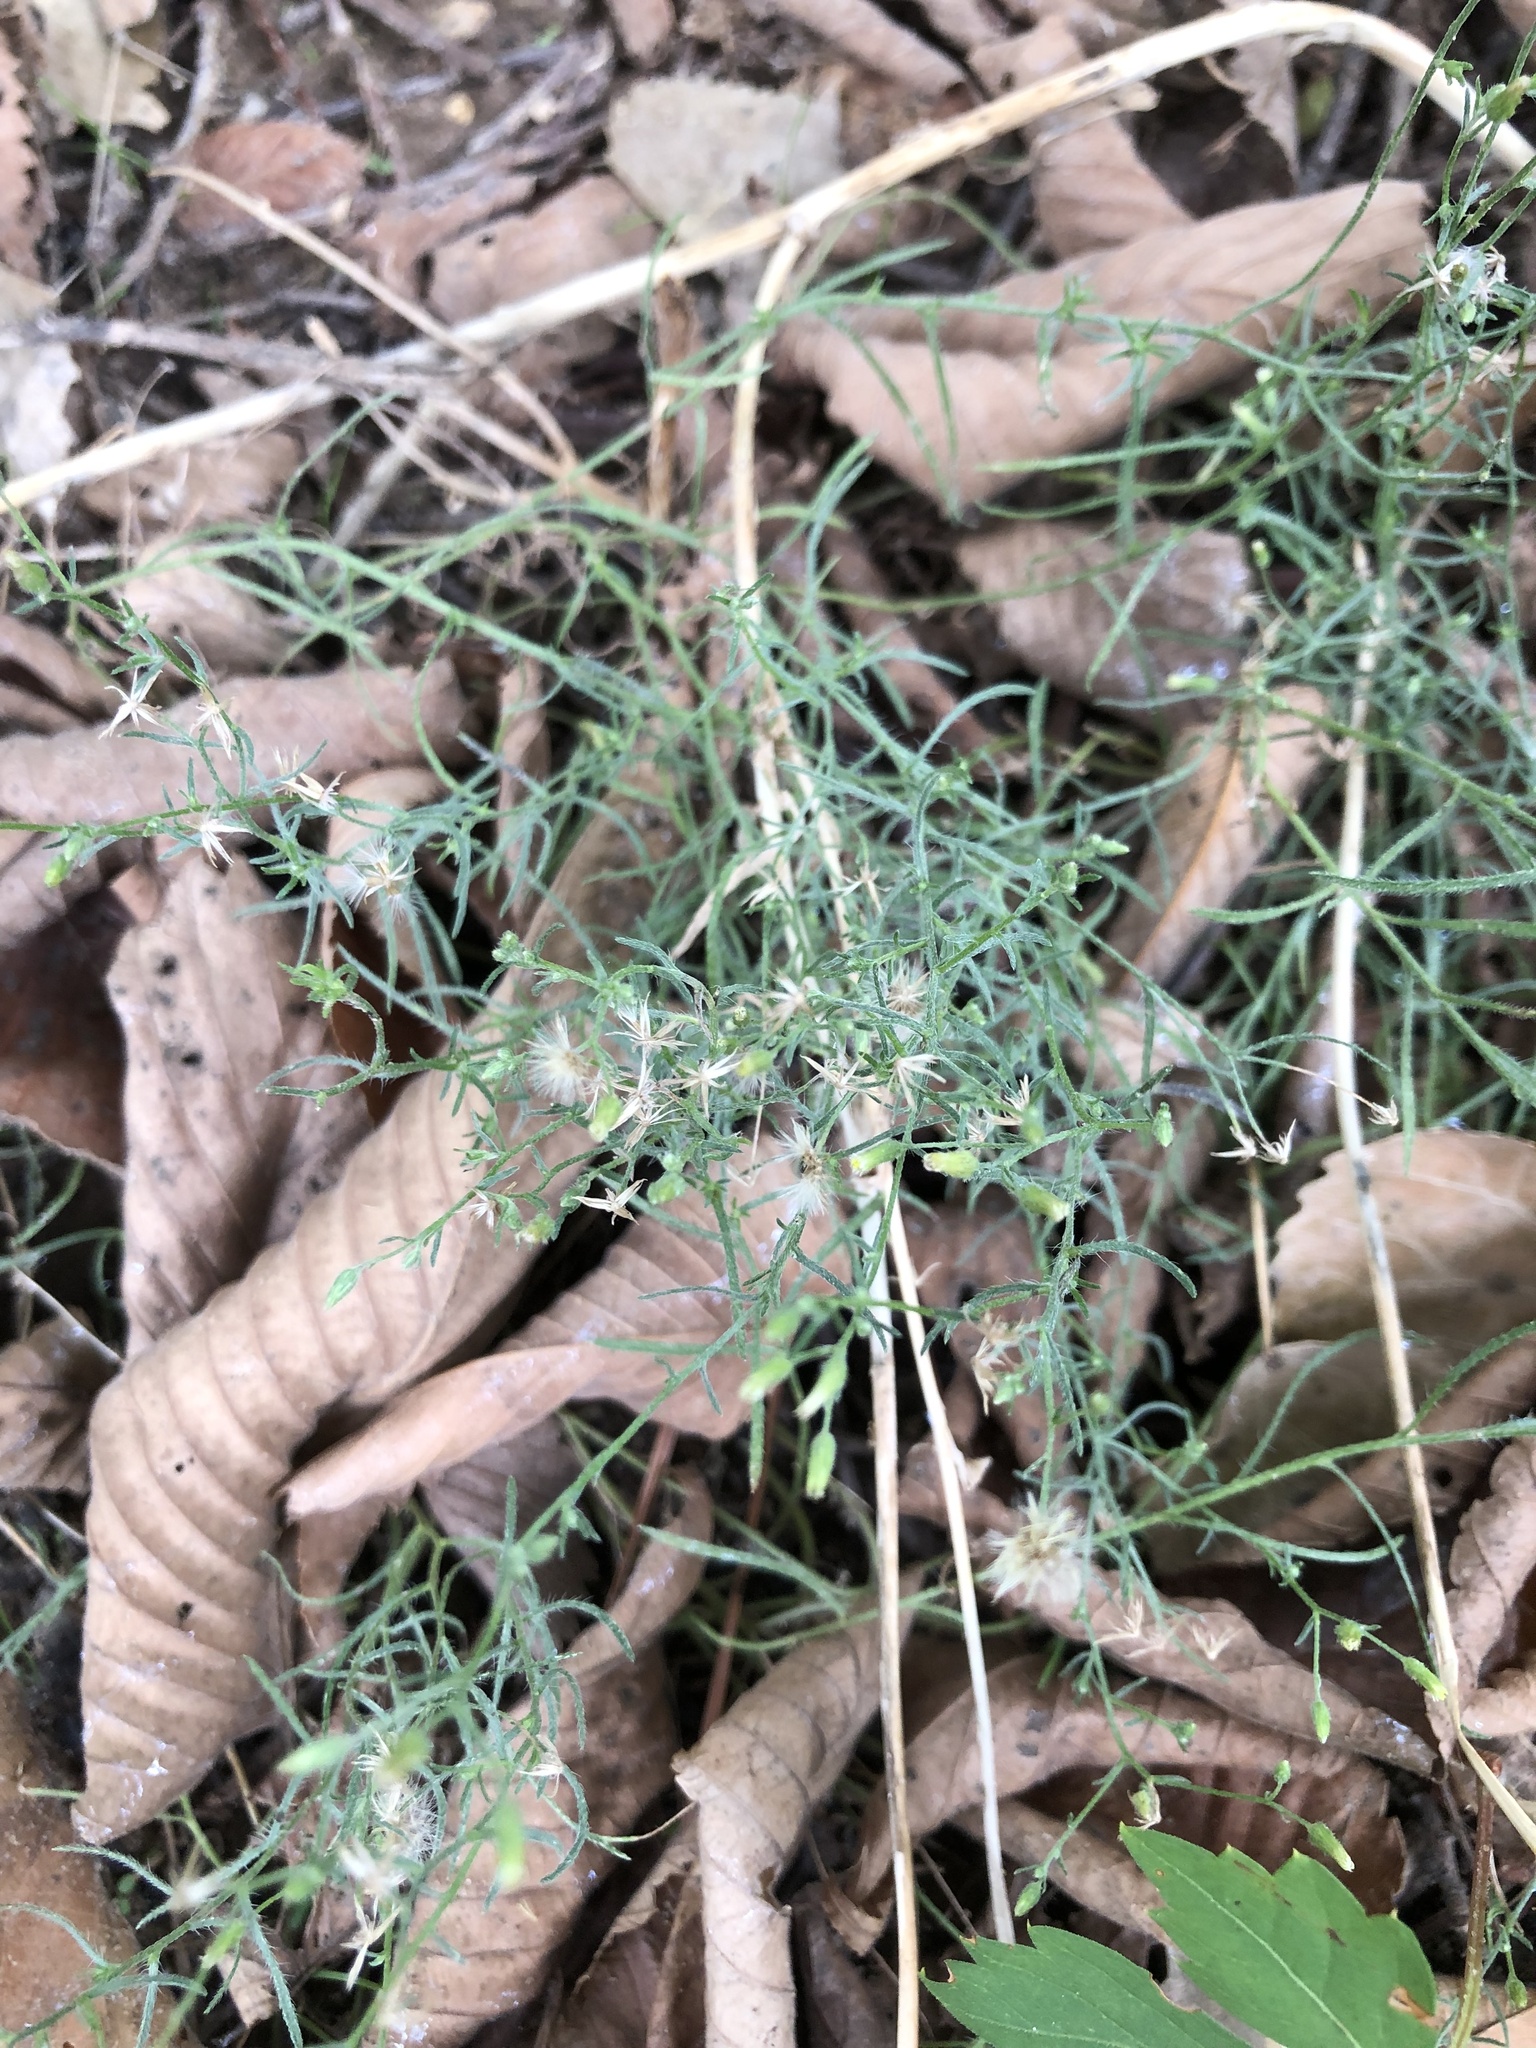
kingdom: Plantae
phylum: Tracheophyta
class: Magnoliopsida
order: Asterales
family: Asteraceae
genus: Erigeron
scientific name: Erigeron divaricatus
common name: Dwarf conyza
